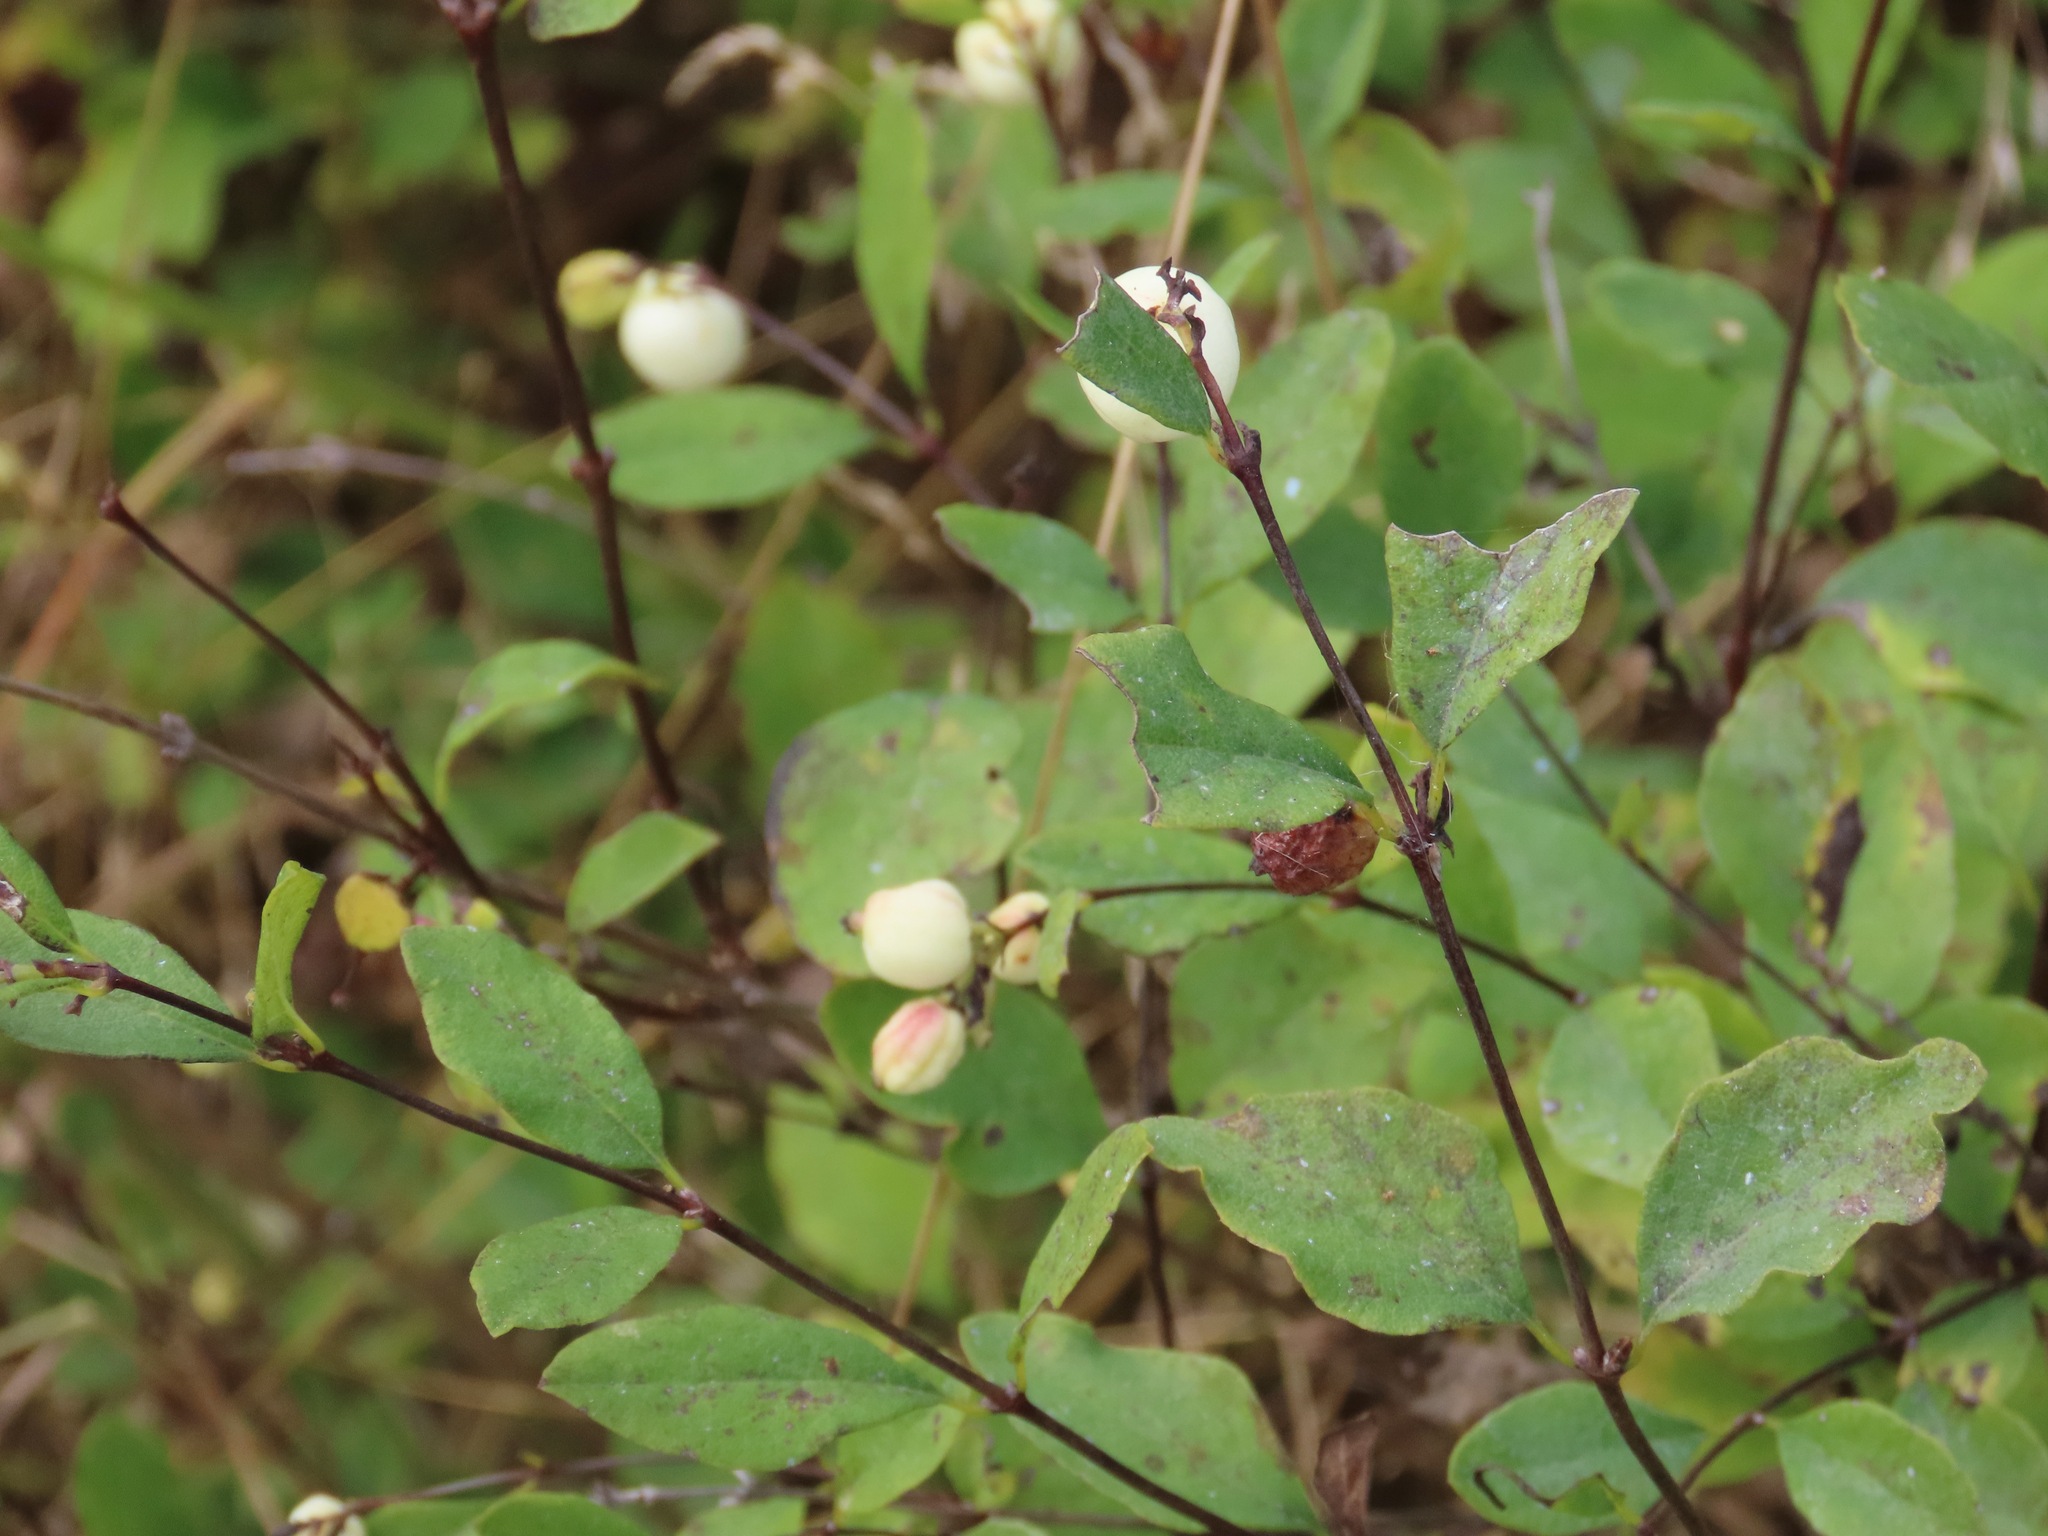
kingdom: Plantae
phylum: Tracheophyta
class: Magnoliopsida
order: Dipsacales
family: Caprifoliaceae
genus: Symphoricarpos
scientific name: Symphoricarpos albus
